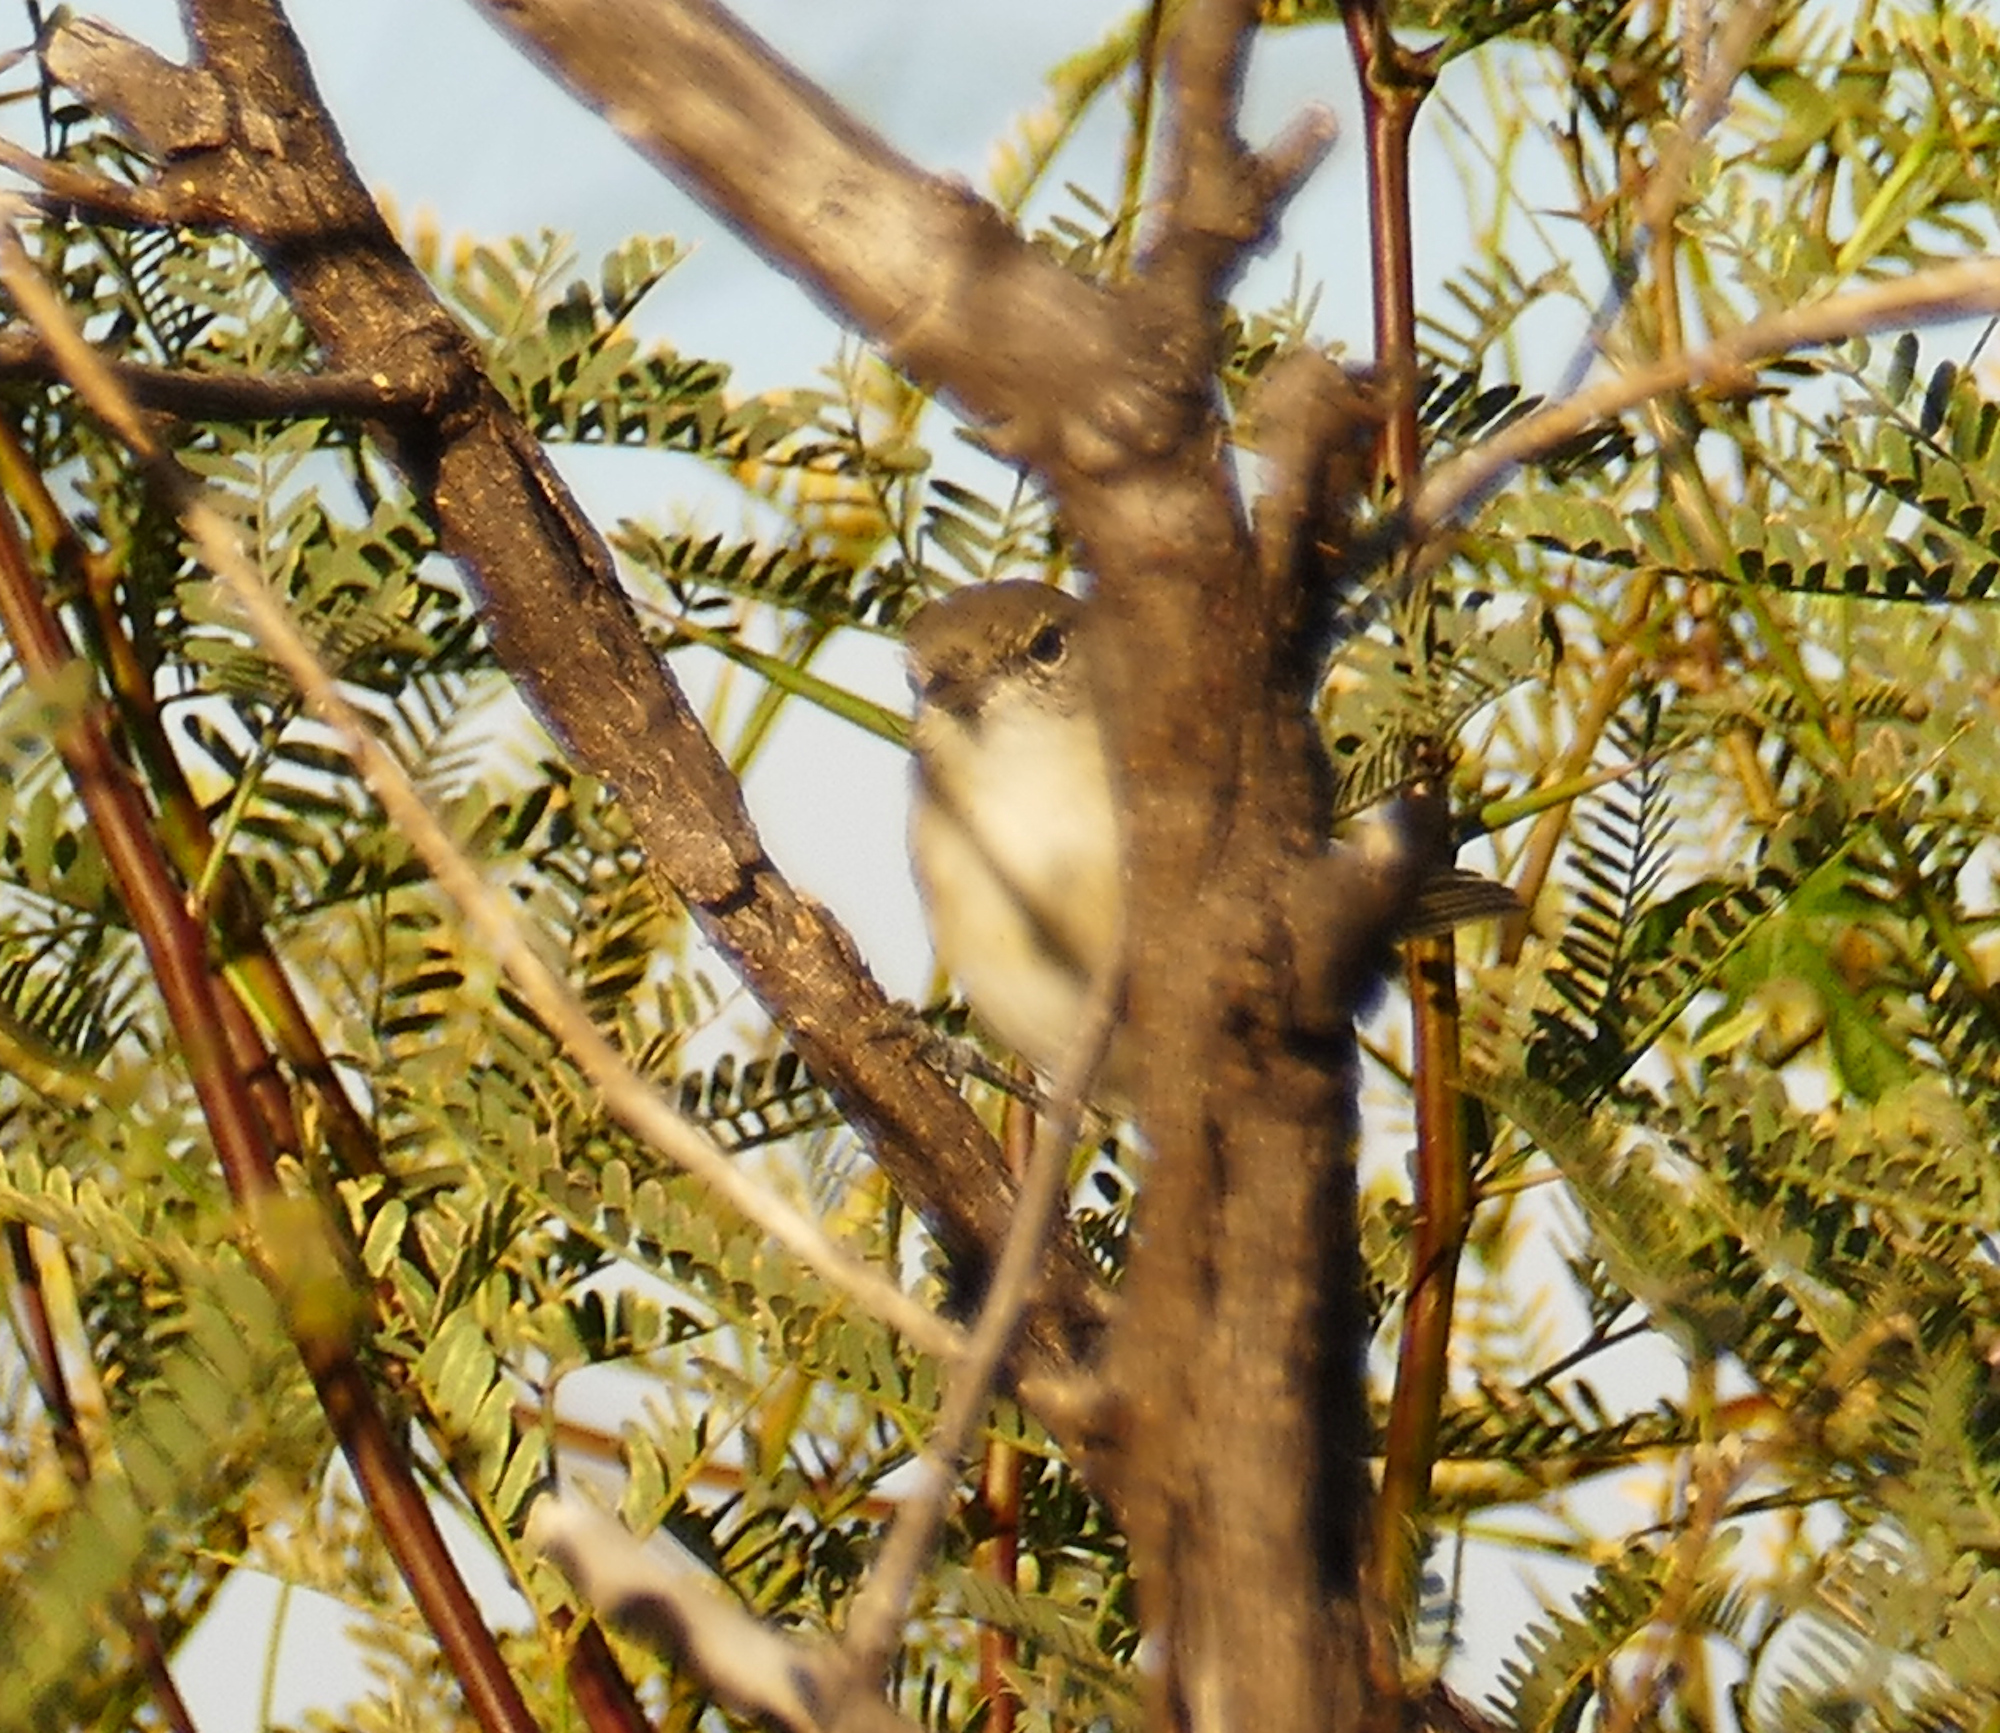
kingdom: Animalia
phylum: Chordata
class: Aves
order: Passeriformes
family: Vireonidae
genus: Vireo
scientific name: Vireo bellii
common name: Bell's vireo
